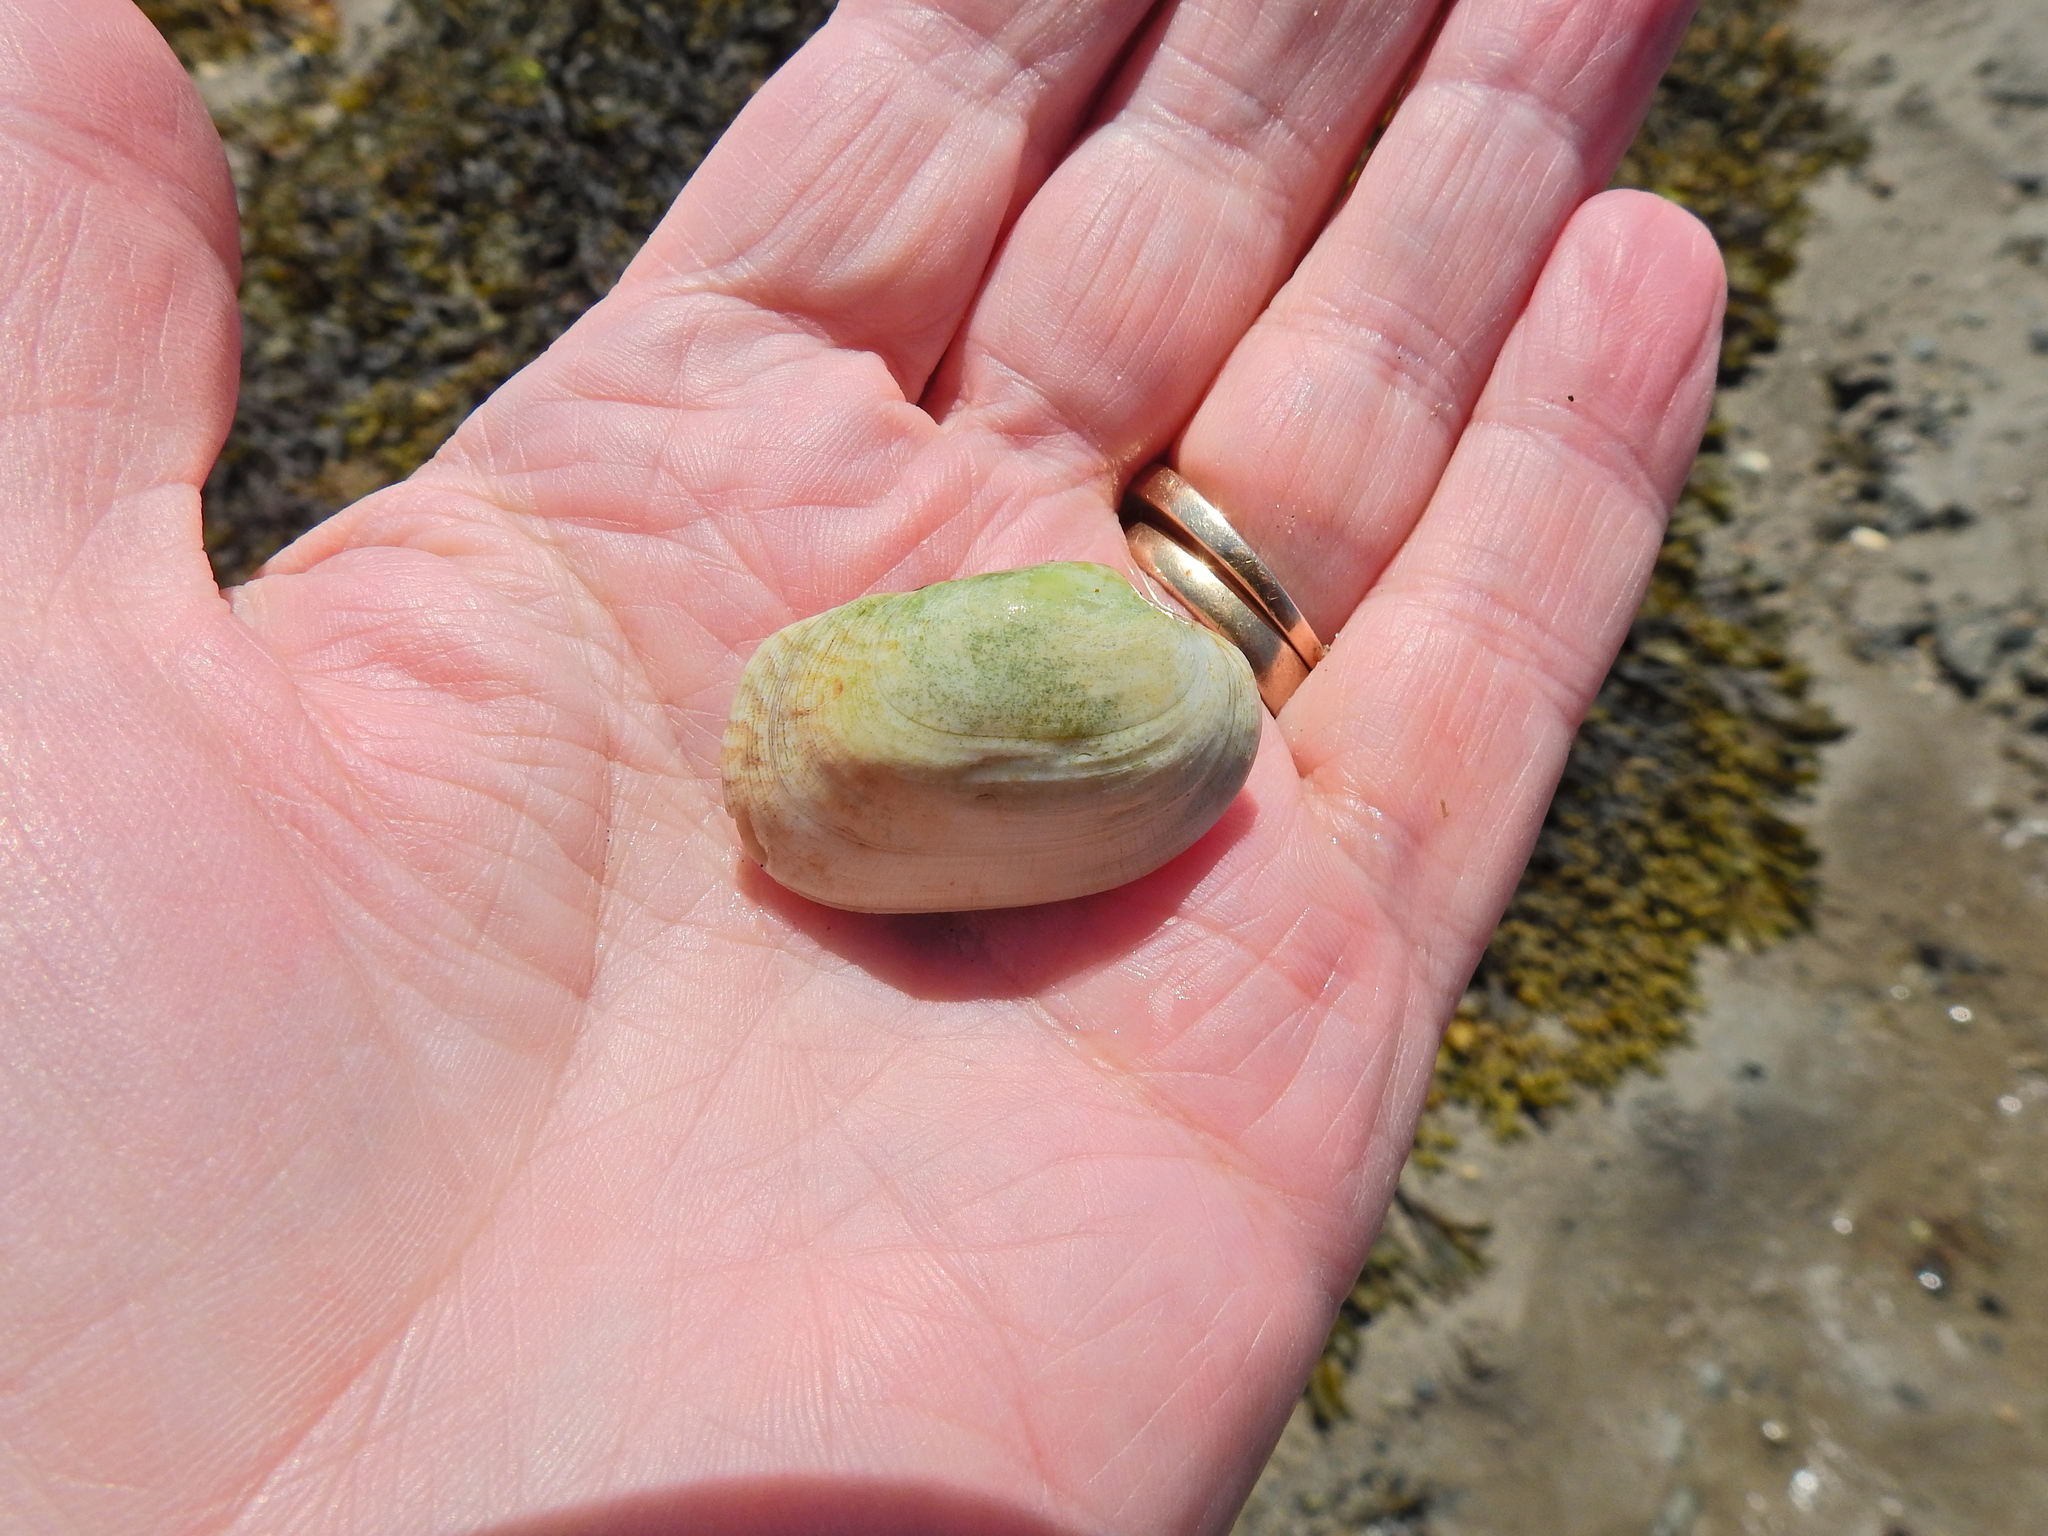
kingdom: Animalia
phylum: Mollusca
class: Bivalvia
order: Venerida
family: Veneridae
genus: Venerupis
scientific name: Venerupis corrugata
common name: Pullet carpet shell
